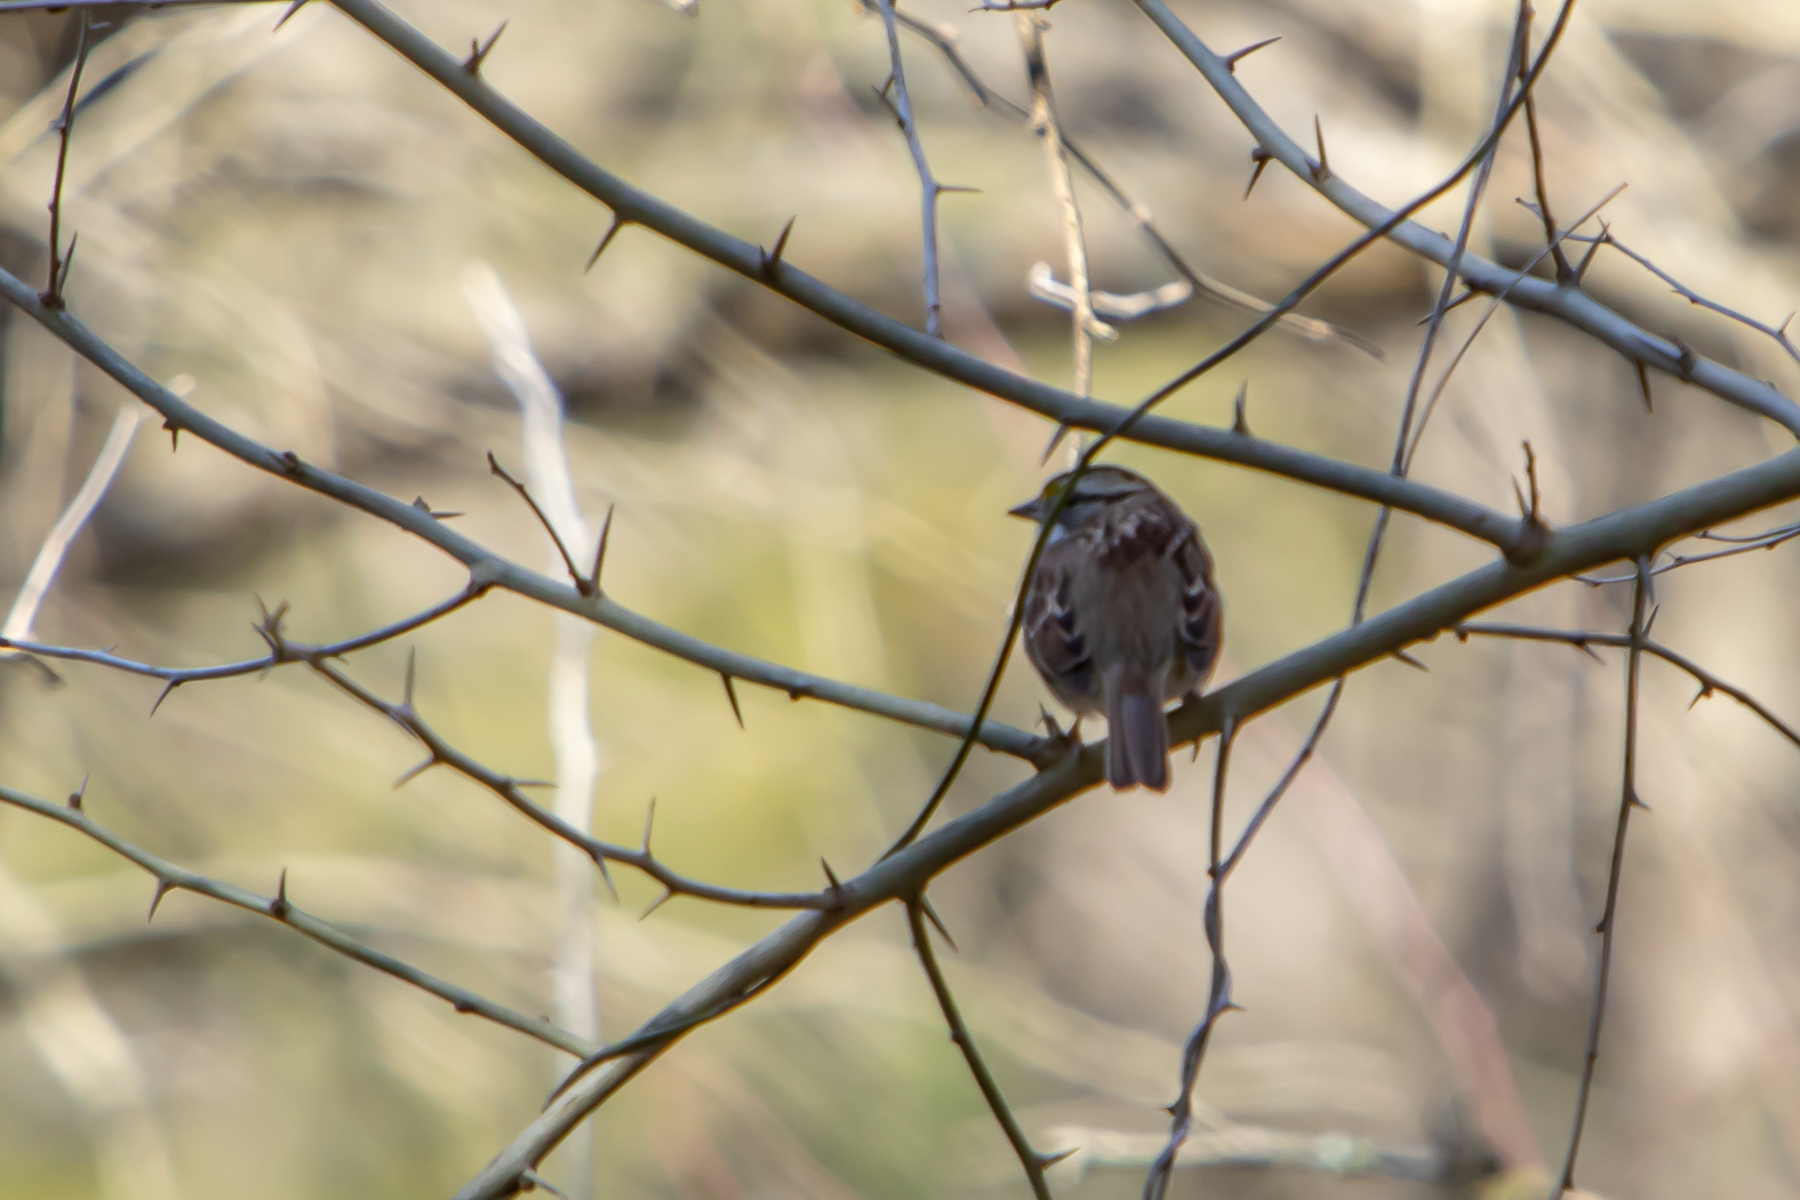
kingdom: Animalia
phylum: Chordata
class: Aves
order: Passeriformes
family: Passerellidae
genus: Zonotrichia
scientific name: Zonotrichia albicollis
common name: White-throated sparrow
